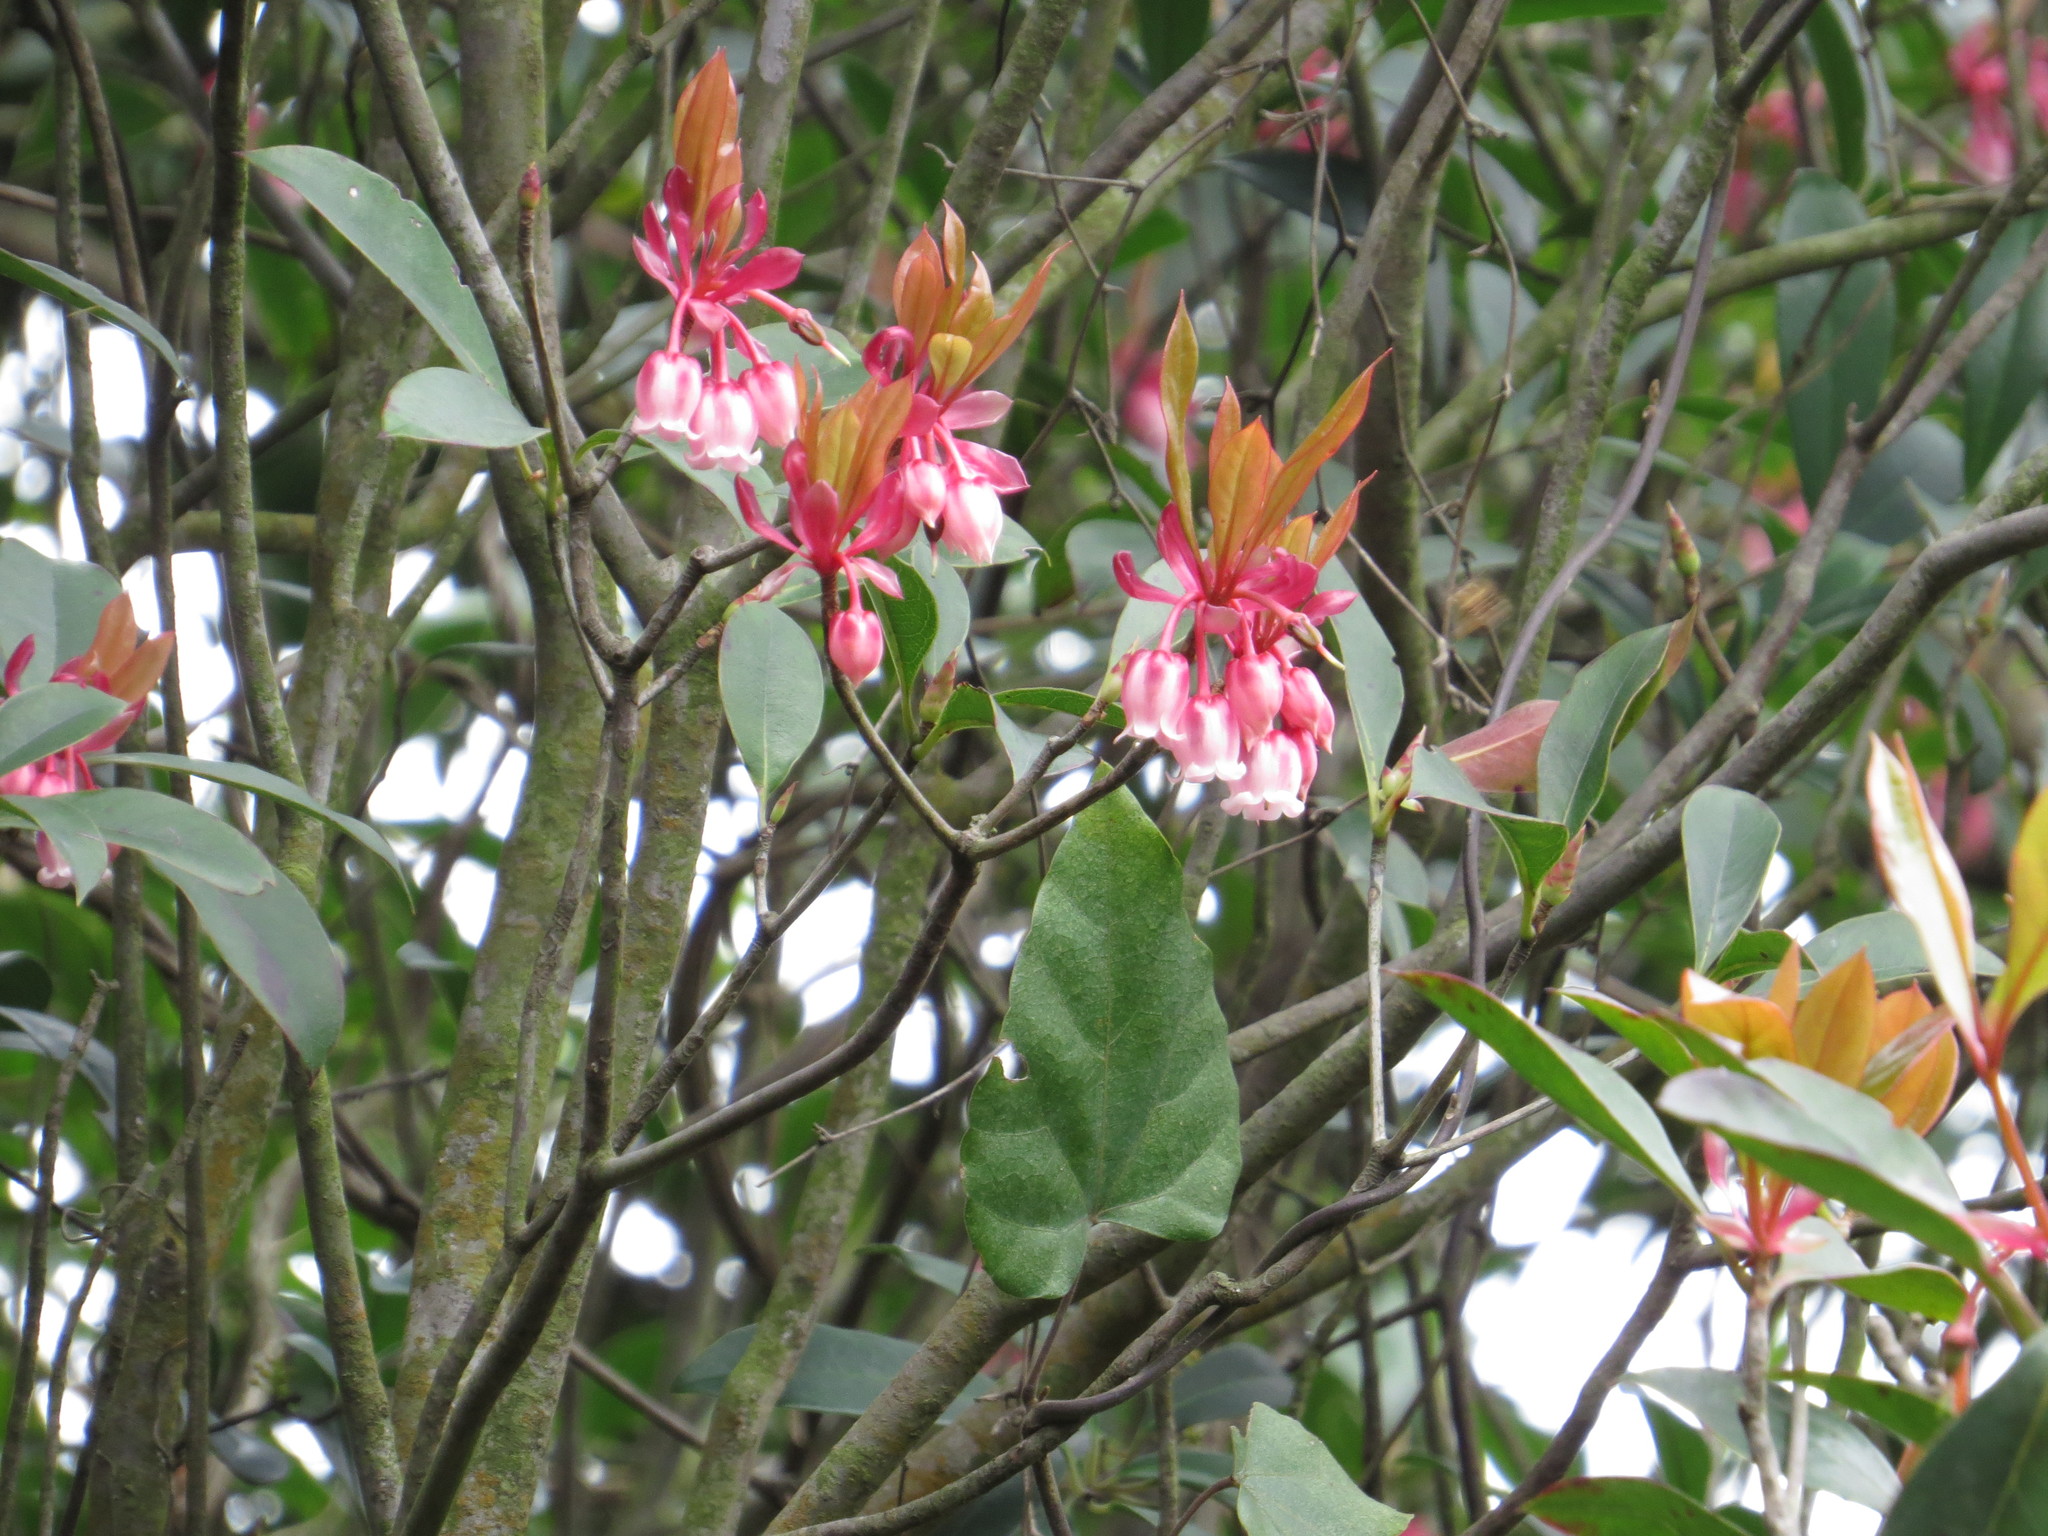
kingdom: Plantae
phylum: Tracheophyta
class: Magnoliopsida
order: Ericales
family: Ericaceae
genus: Enkianthus
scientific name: Enkianthus quinqueflorus
